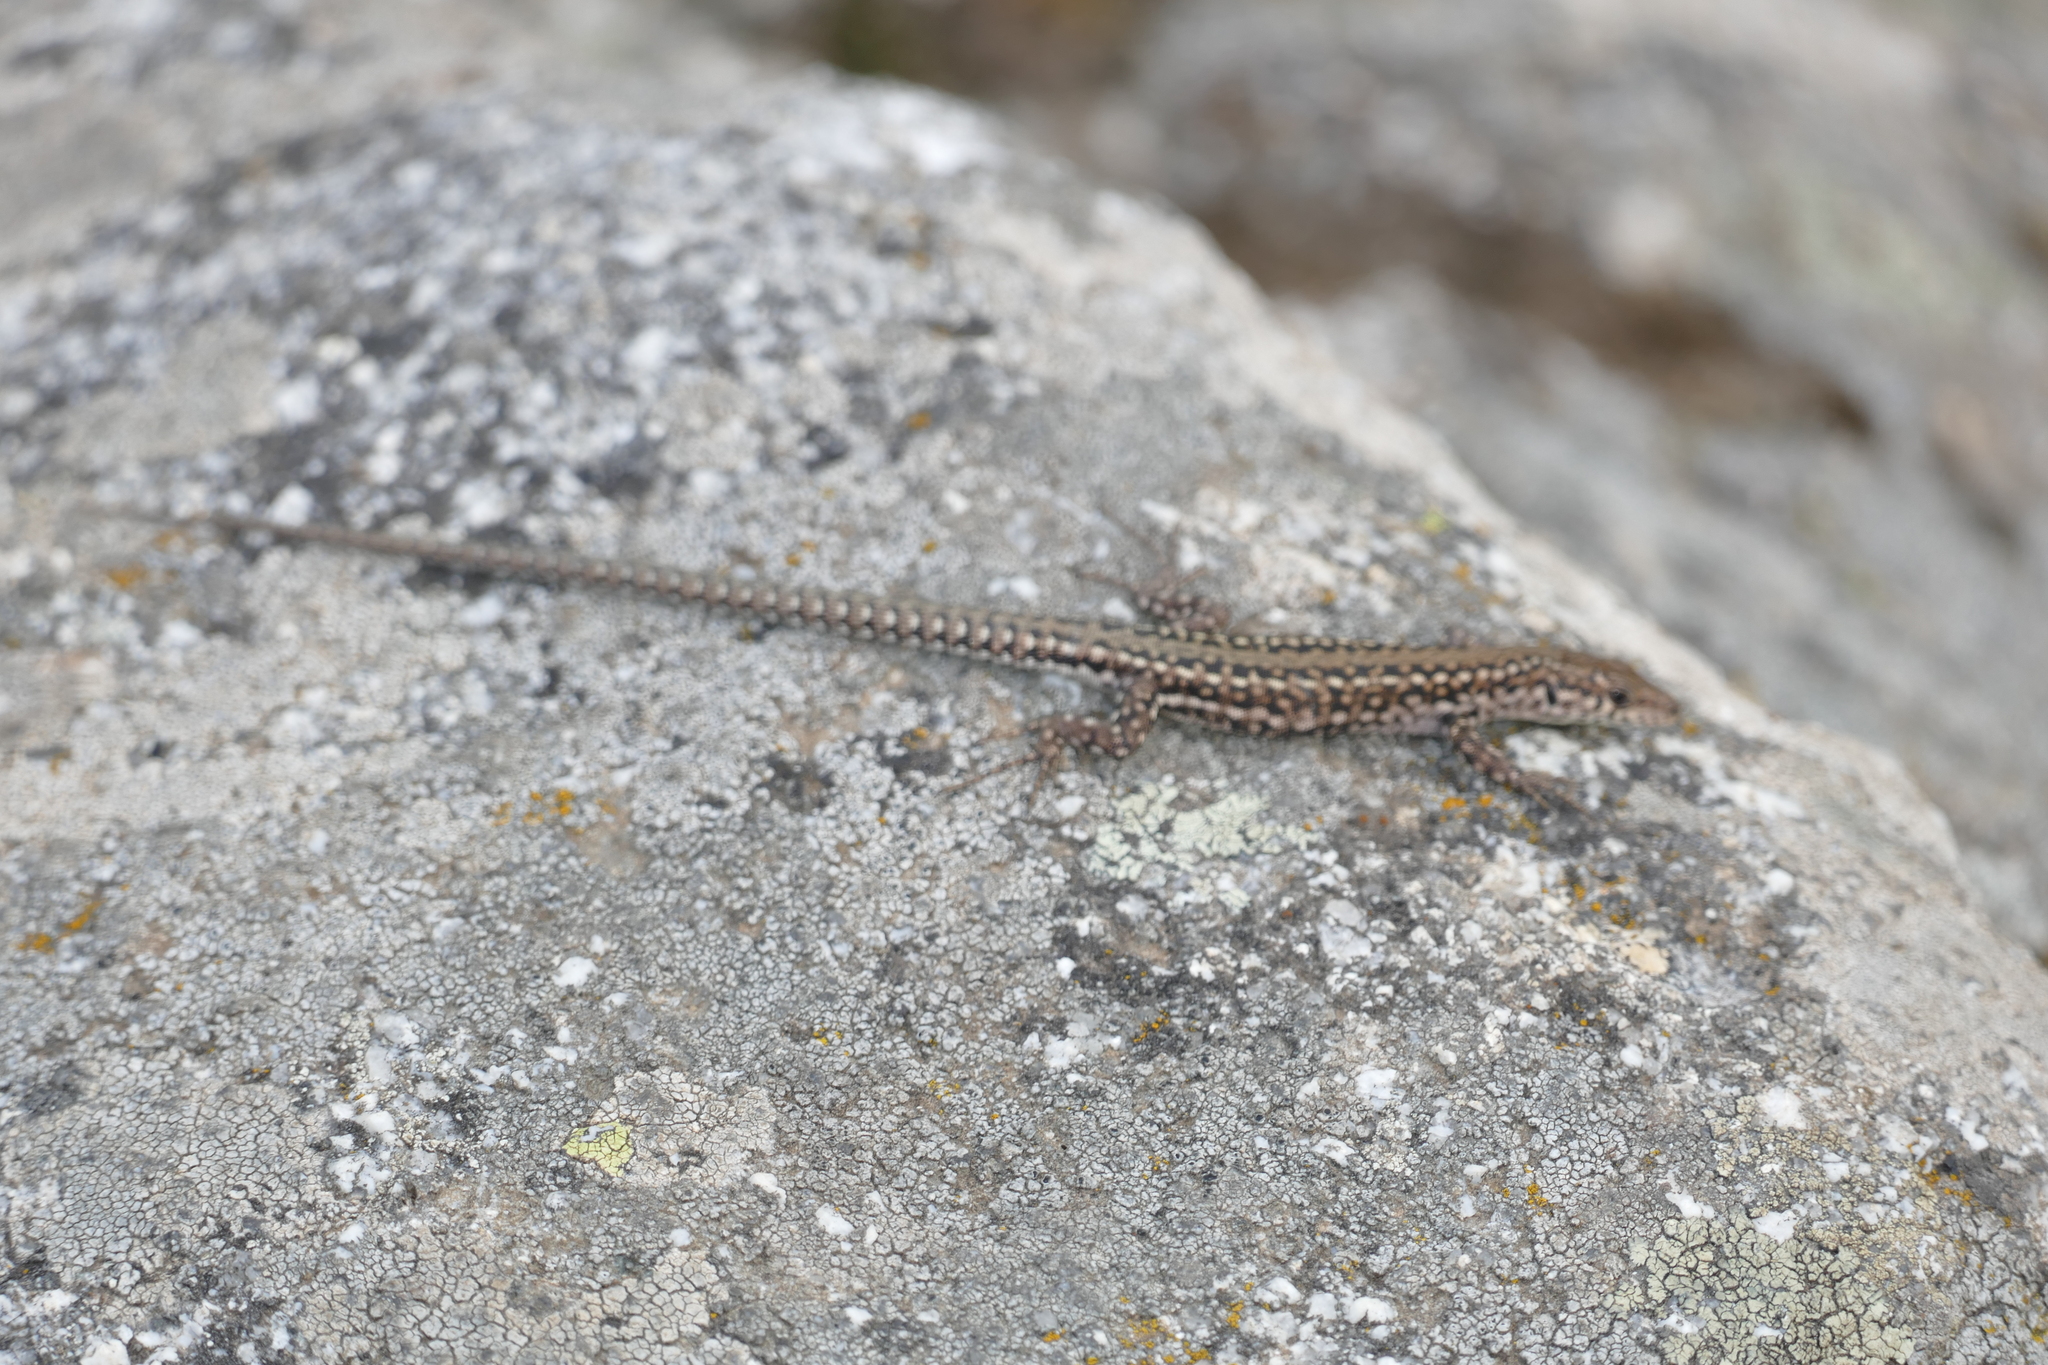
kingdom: Animalia
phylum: Chordata
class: Squamata
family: Lacertidae
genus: Podarcis
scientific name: Podarcis guadarramae
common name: Guadarrama wall lizard
